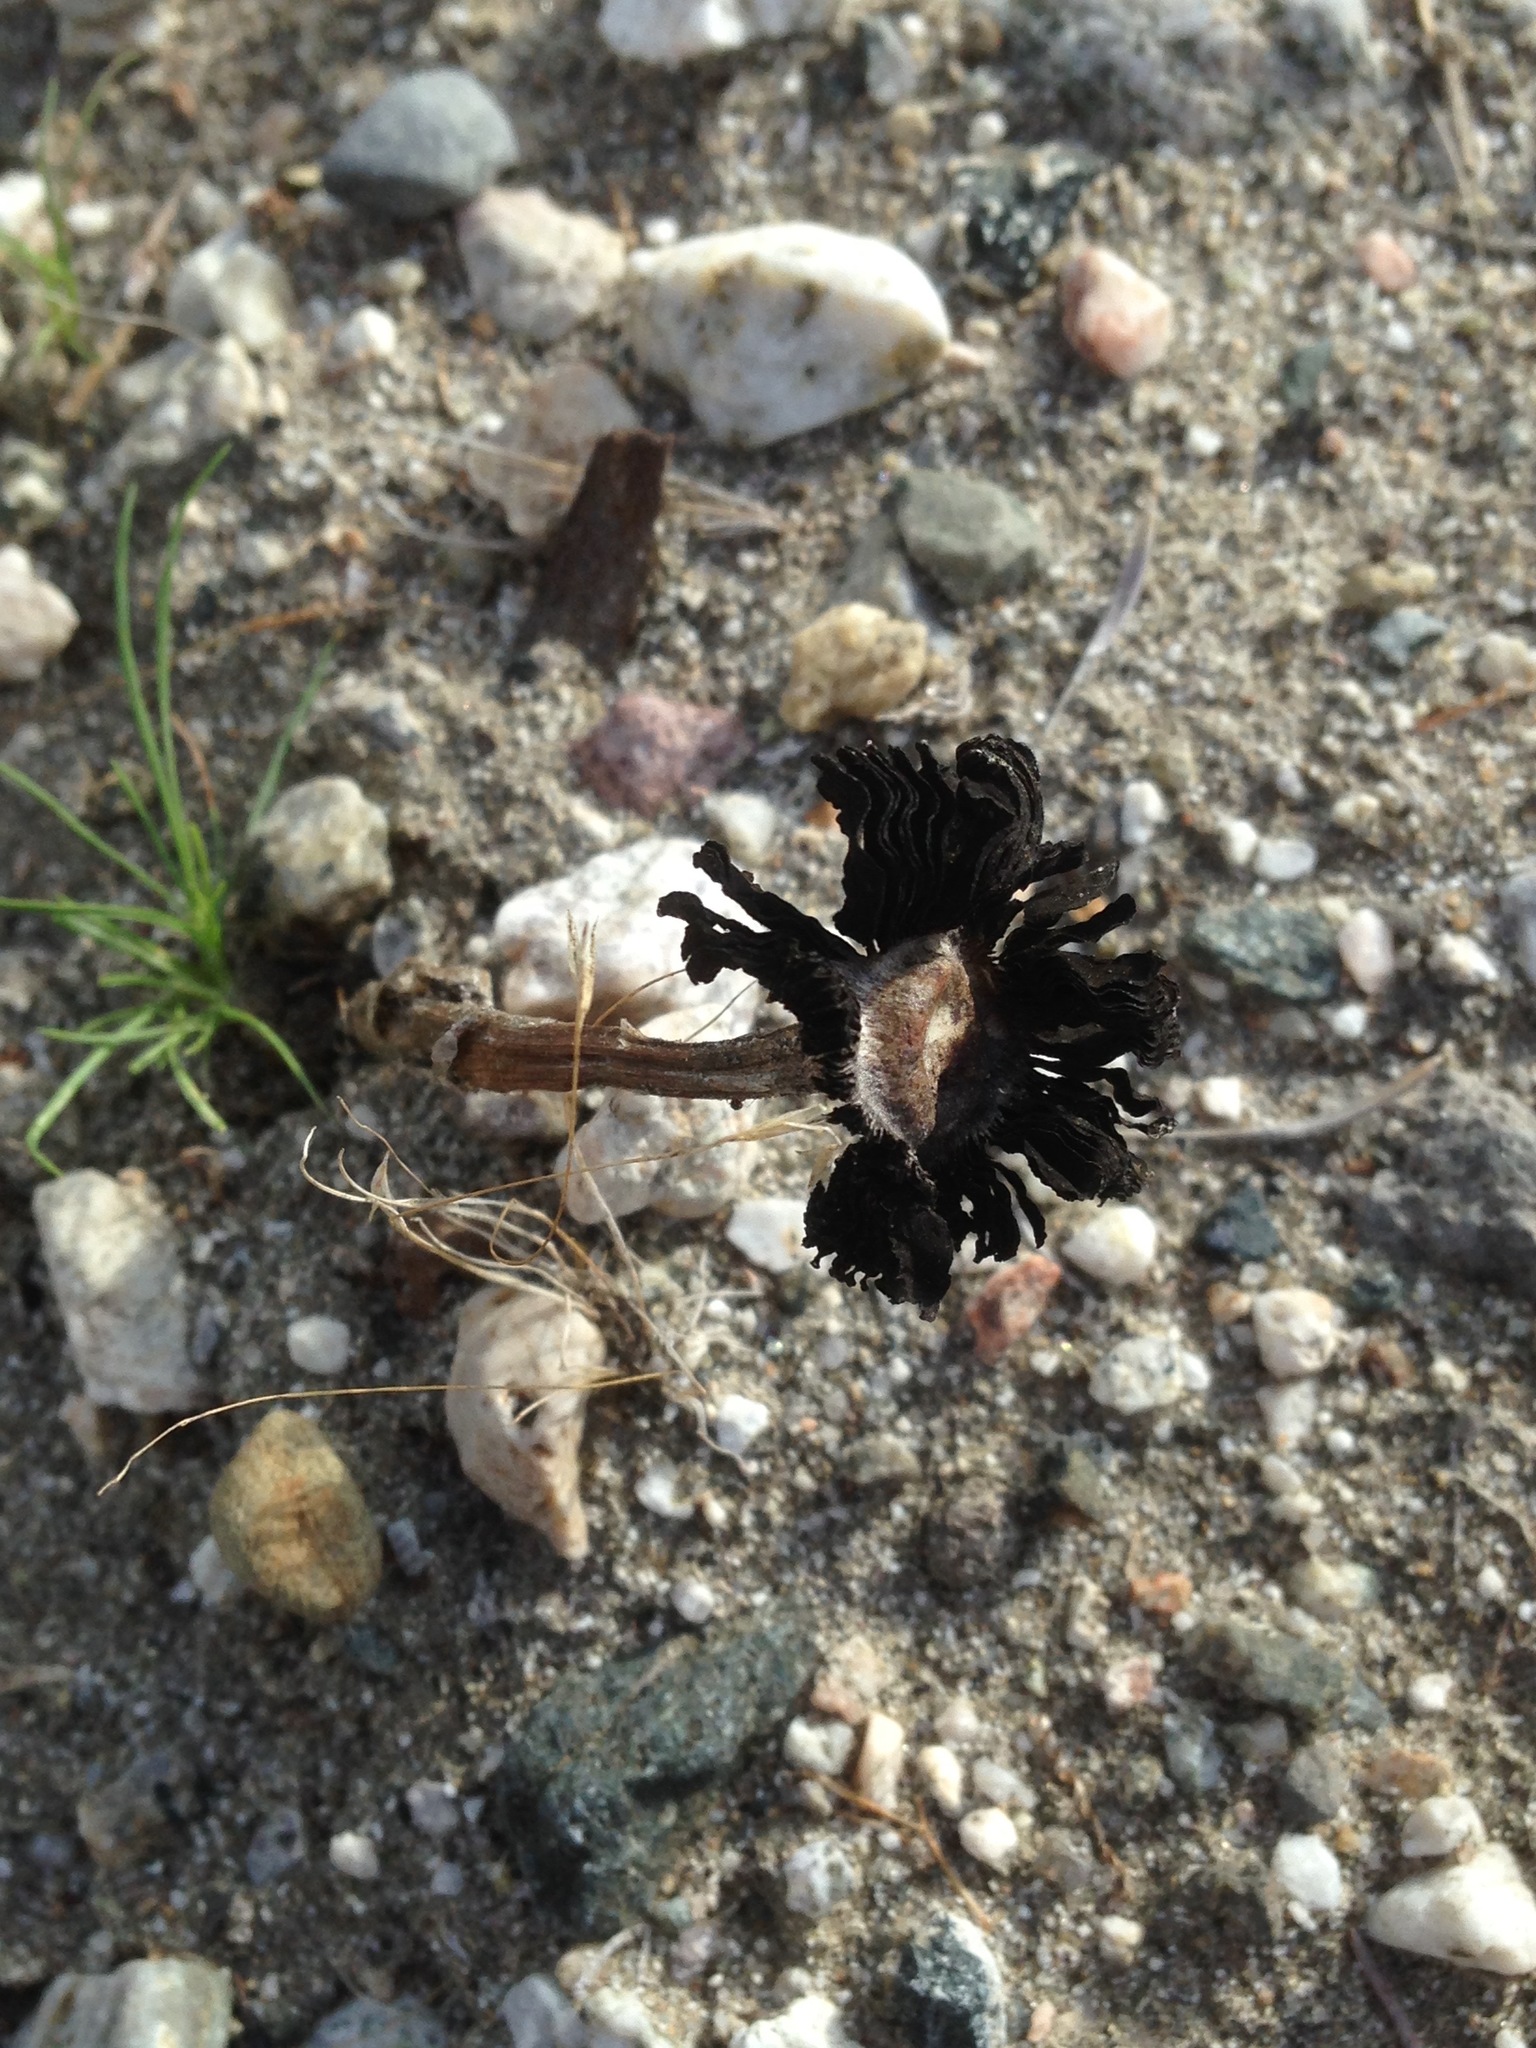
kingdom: Fungi
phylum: Basidiomycota
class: Agaricomycetes
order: Agaricales
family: Agaricaceae
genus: Montagnea
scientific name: Montagnea arenaria
